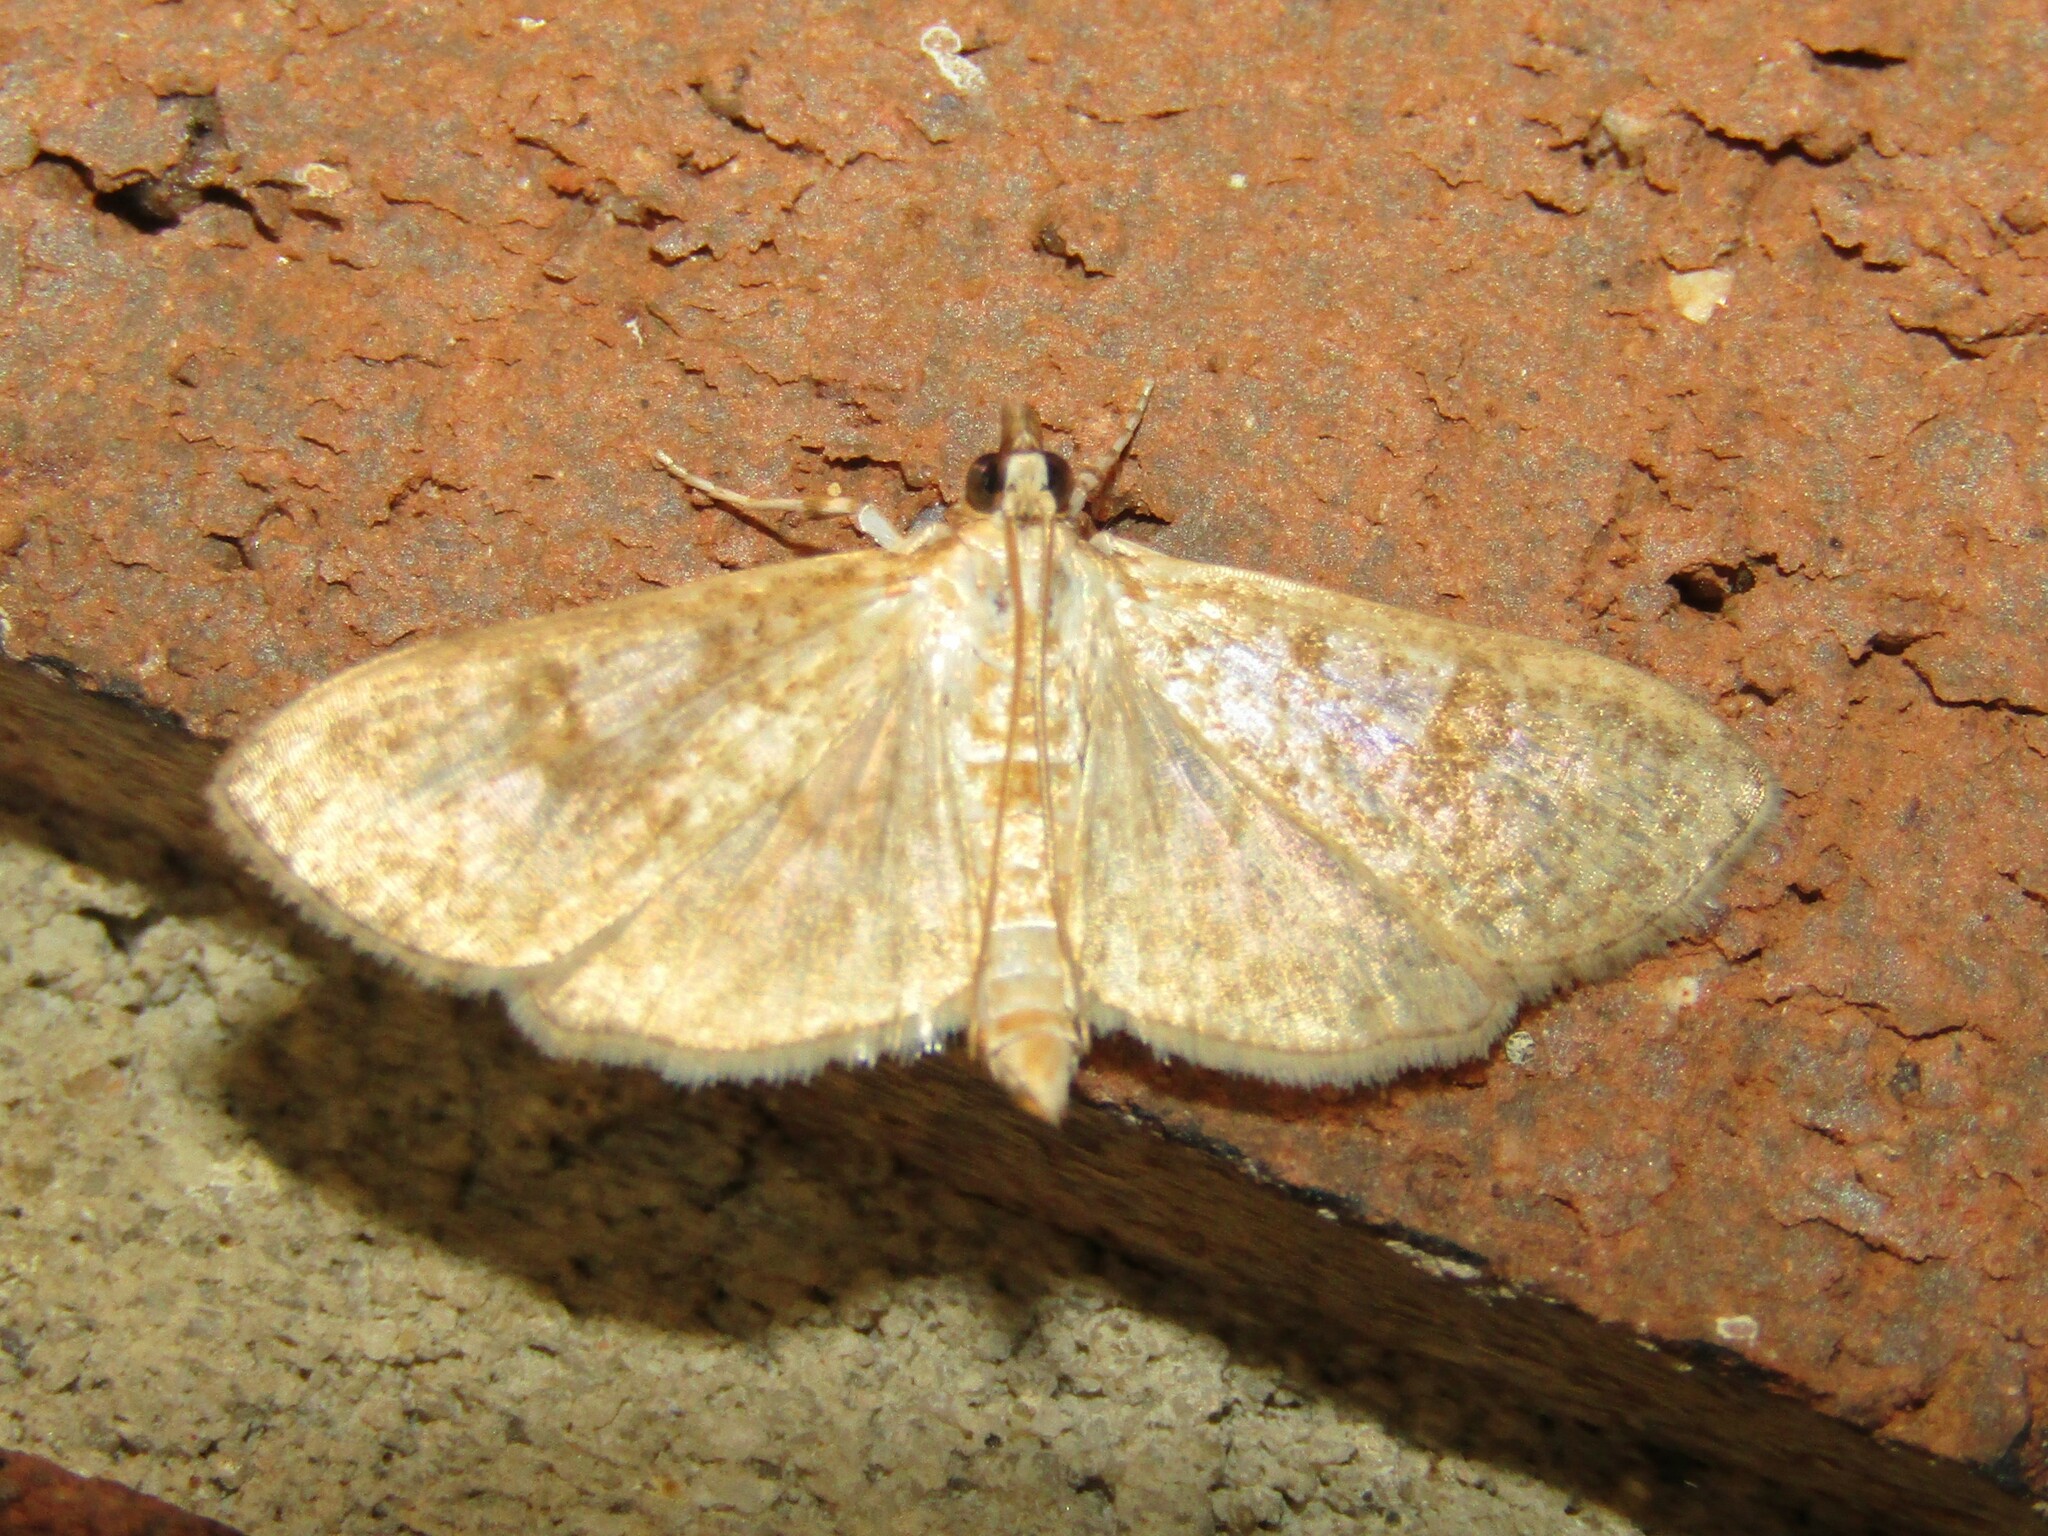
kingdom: Animalia
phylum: Arthropoda
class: Insecta
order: Lepidoptera
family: Crambidae
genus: Palpita
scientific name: Palpita freemanalis
